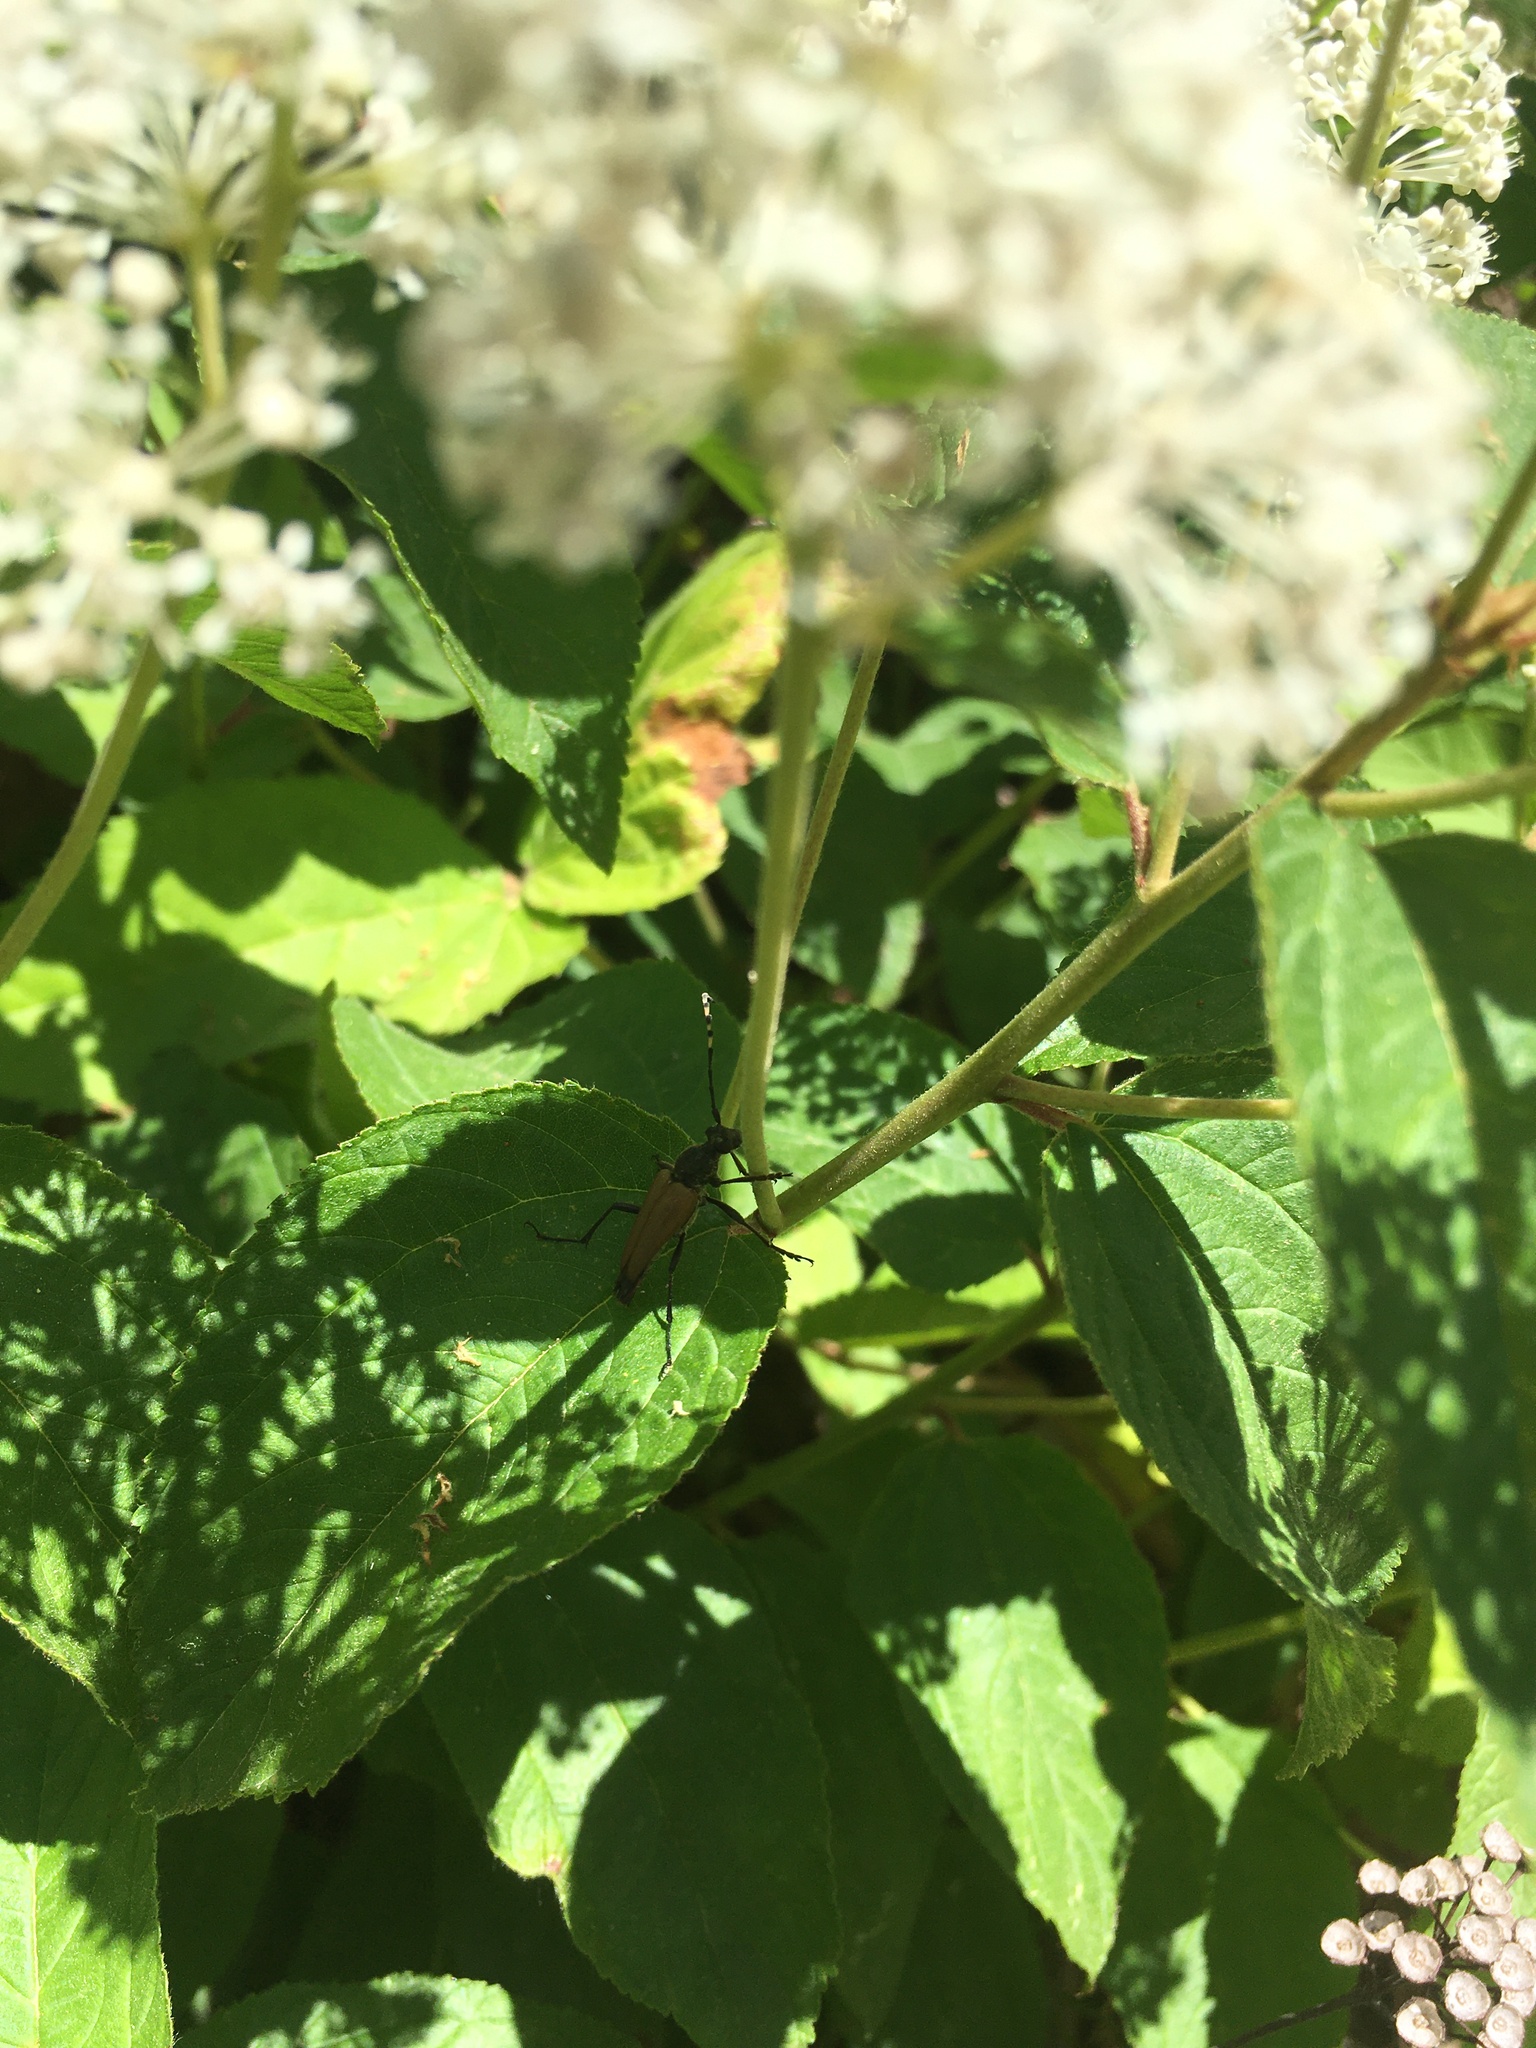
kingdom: Animalia
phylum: Arthropoda
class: Insecta
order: Coleoptera
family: Cerambycidae
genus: Brachyleptura
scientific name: Brachyleptura rubrica
